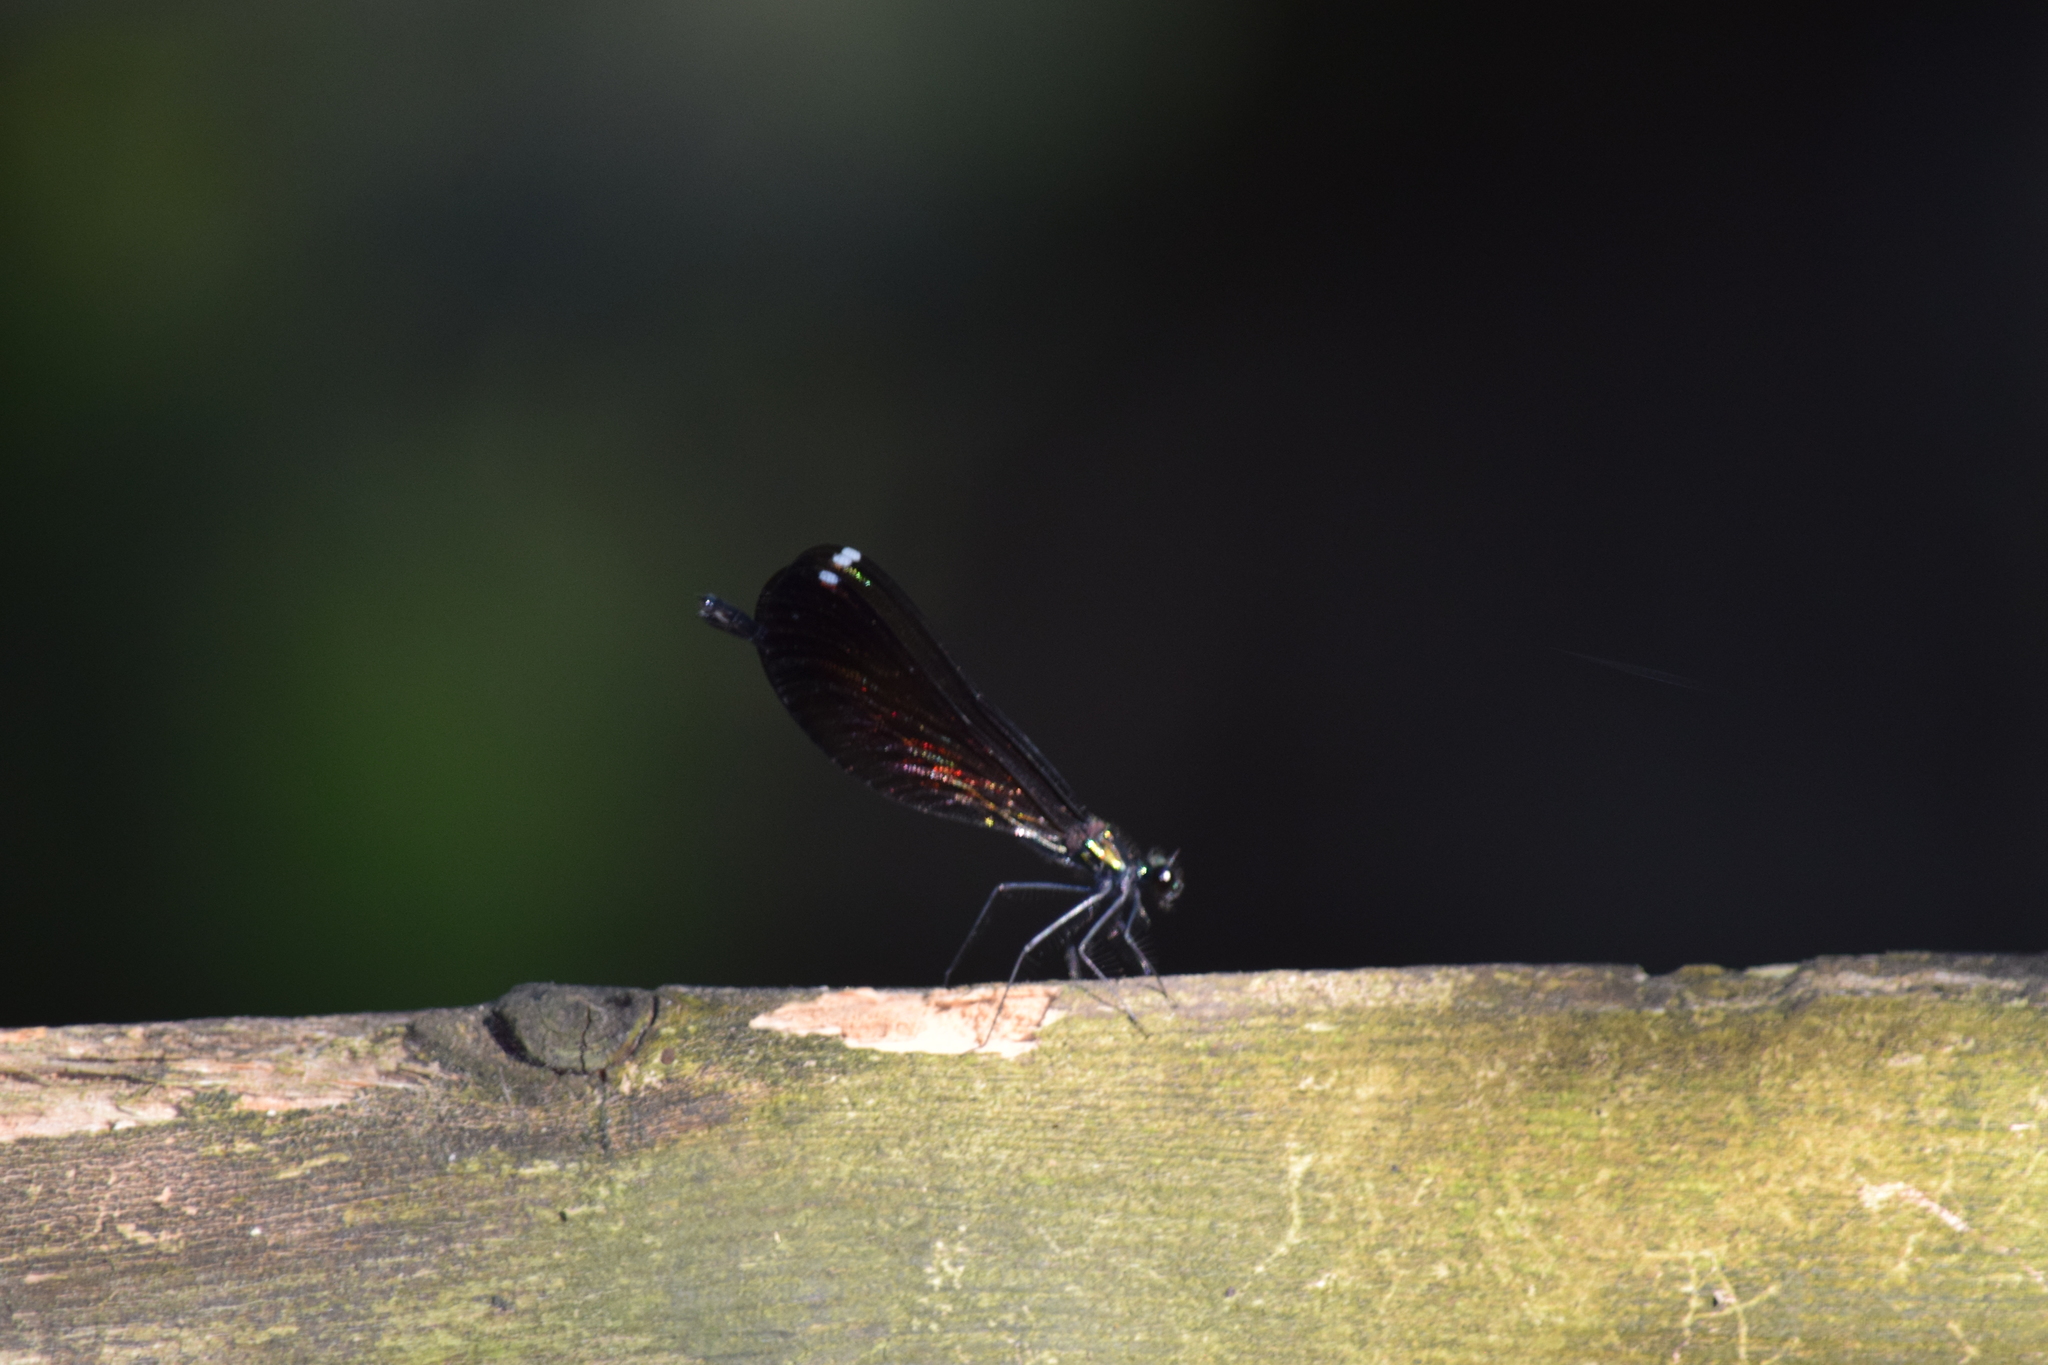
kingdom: Animalia
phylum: Arthropoda
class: Insecta
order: Odonata
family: Calopterygidae
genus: Calopteryx
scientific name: Calopteryx maculata
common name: Ebony jewelwing
